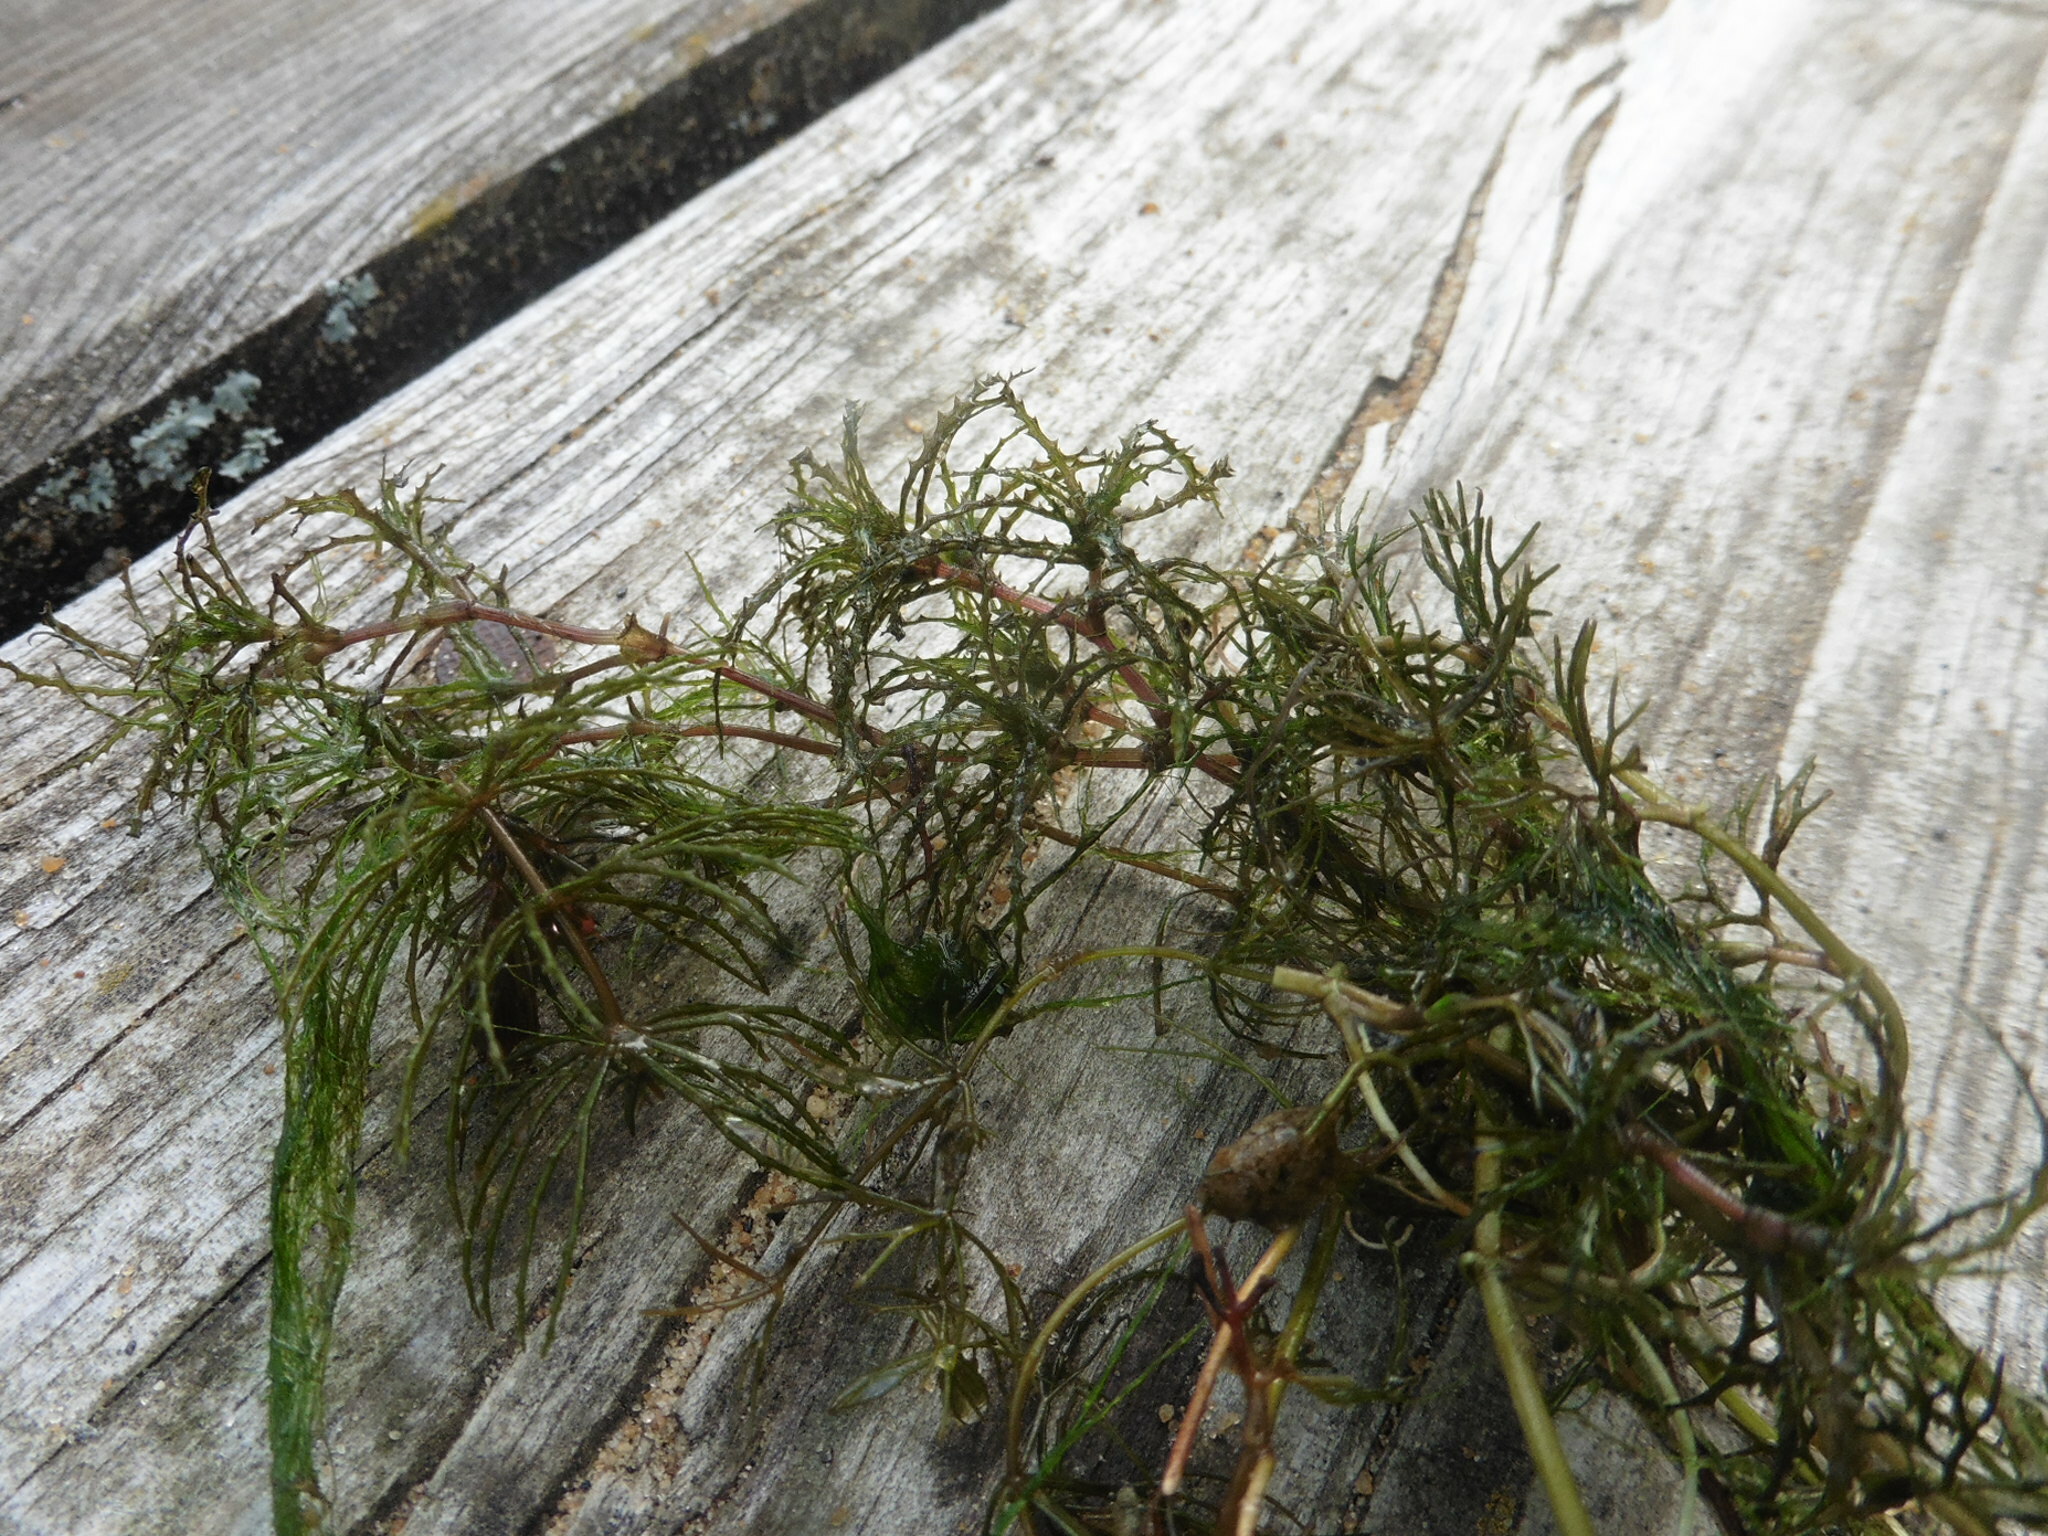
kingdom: Plantae
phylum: Tracheophyta
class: Liliopsida
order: Alismatales
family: Hydrocharitaceae
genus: Najas
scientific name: Najas minor
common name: Brittle naiad
